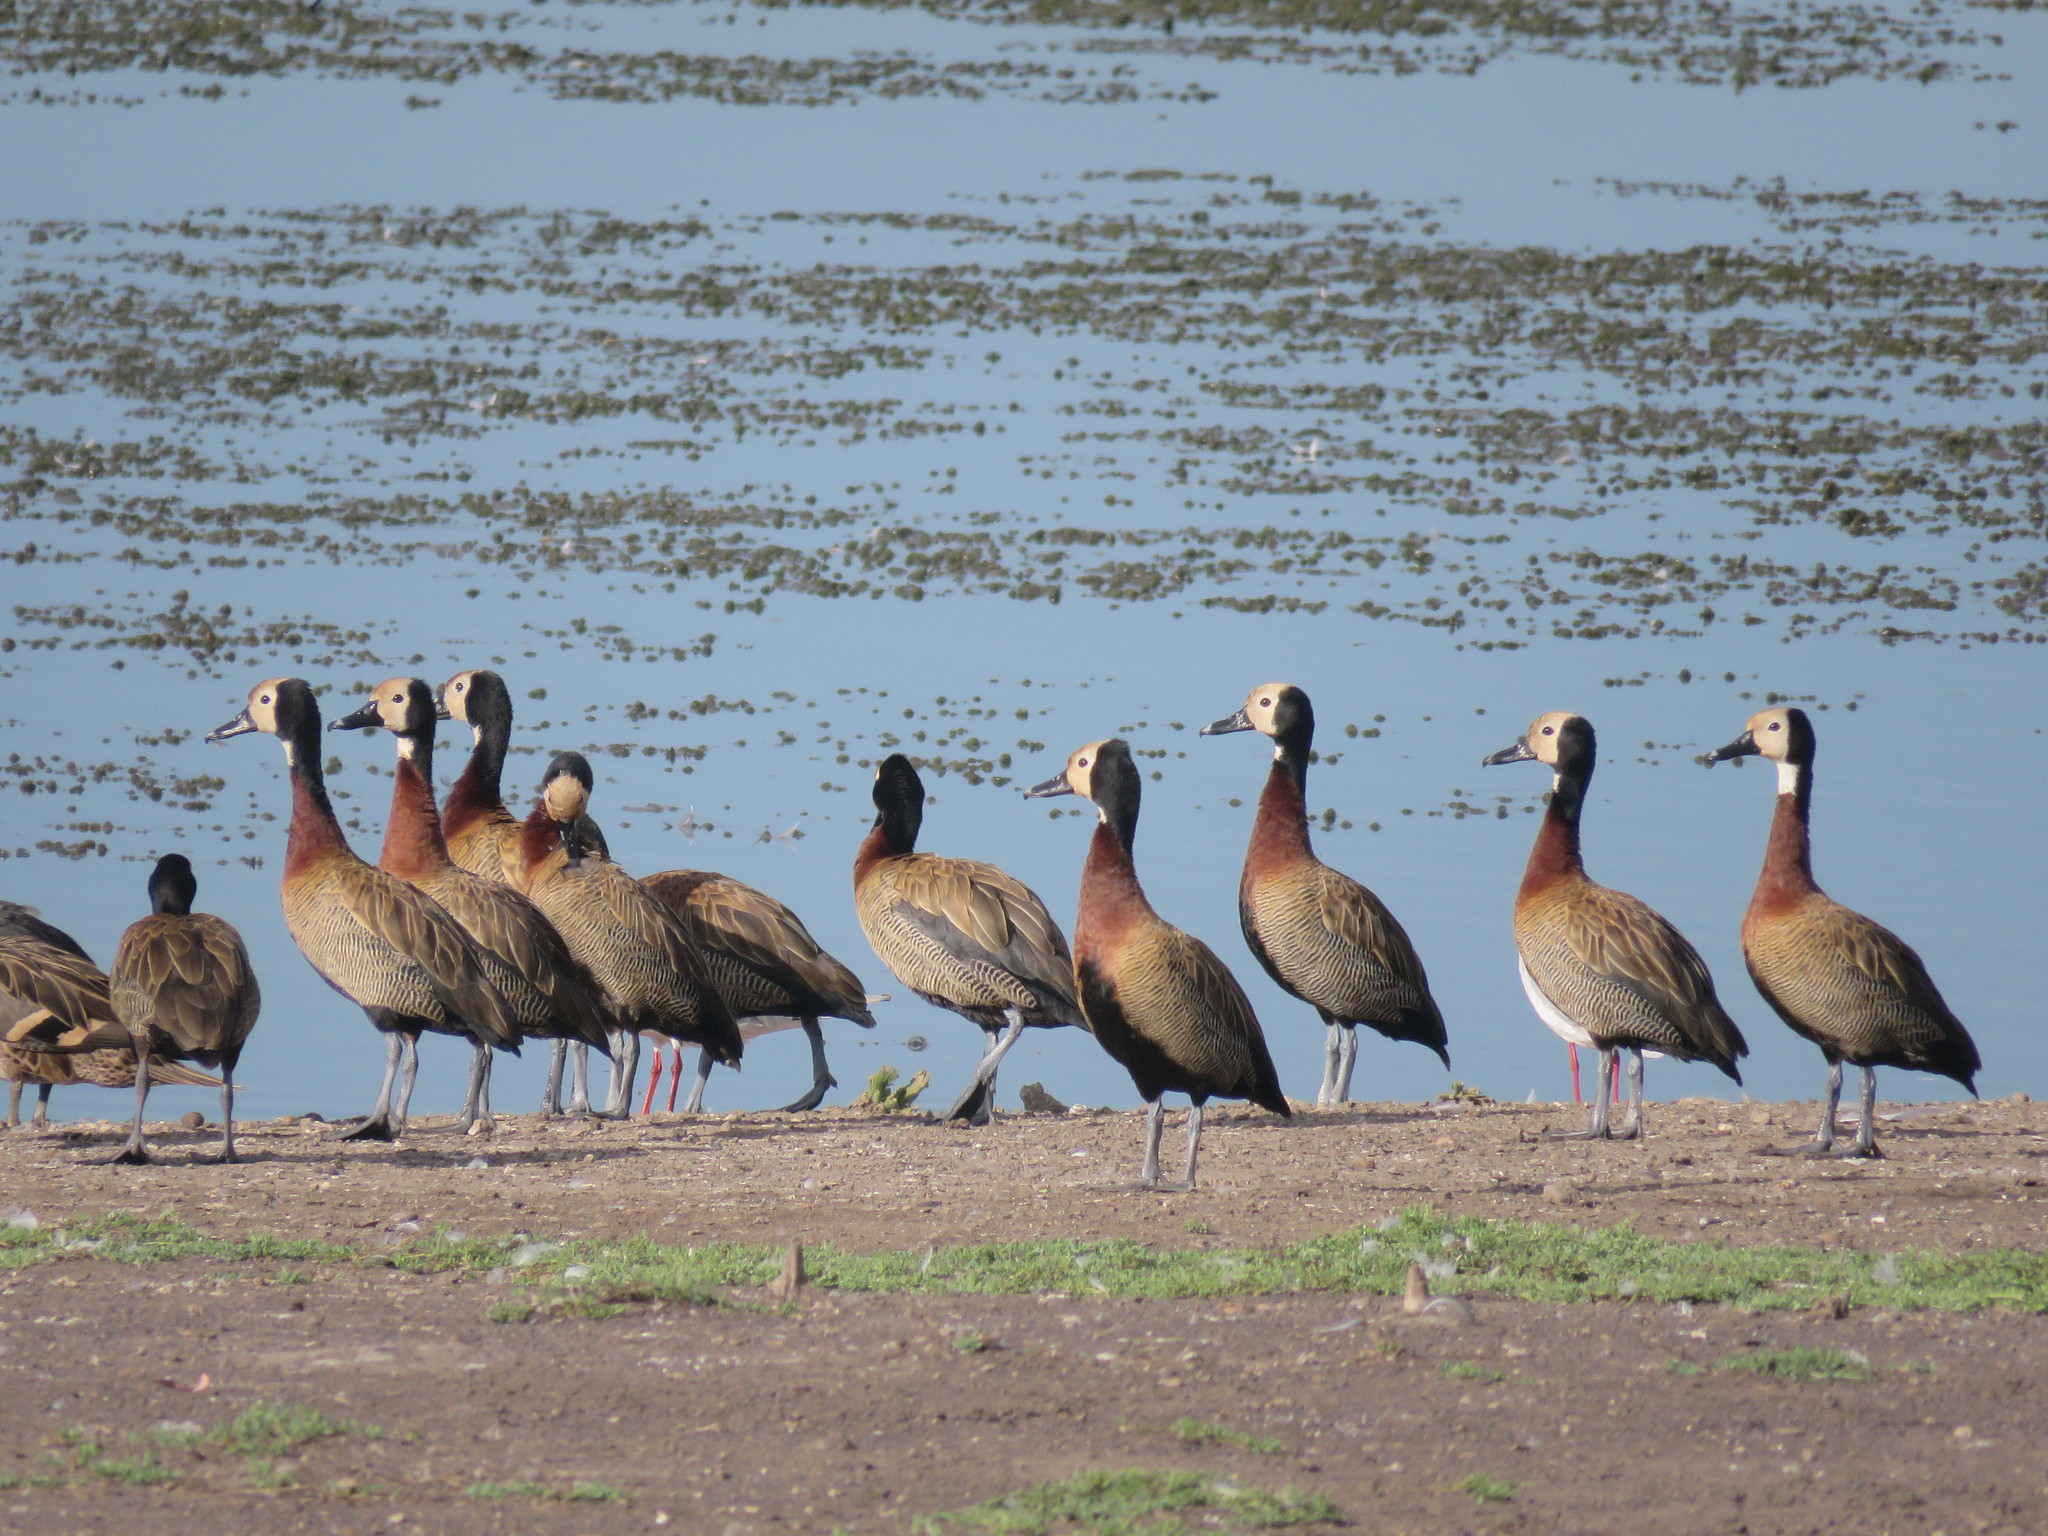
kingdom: Animalia
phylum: Chordata
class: Aves
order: Anseriformes
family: Anatidae
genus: Dendrocygna
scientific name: Dendrocygna viduata
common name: White-faced whistling duck
